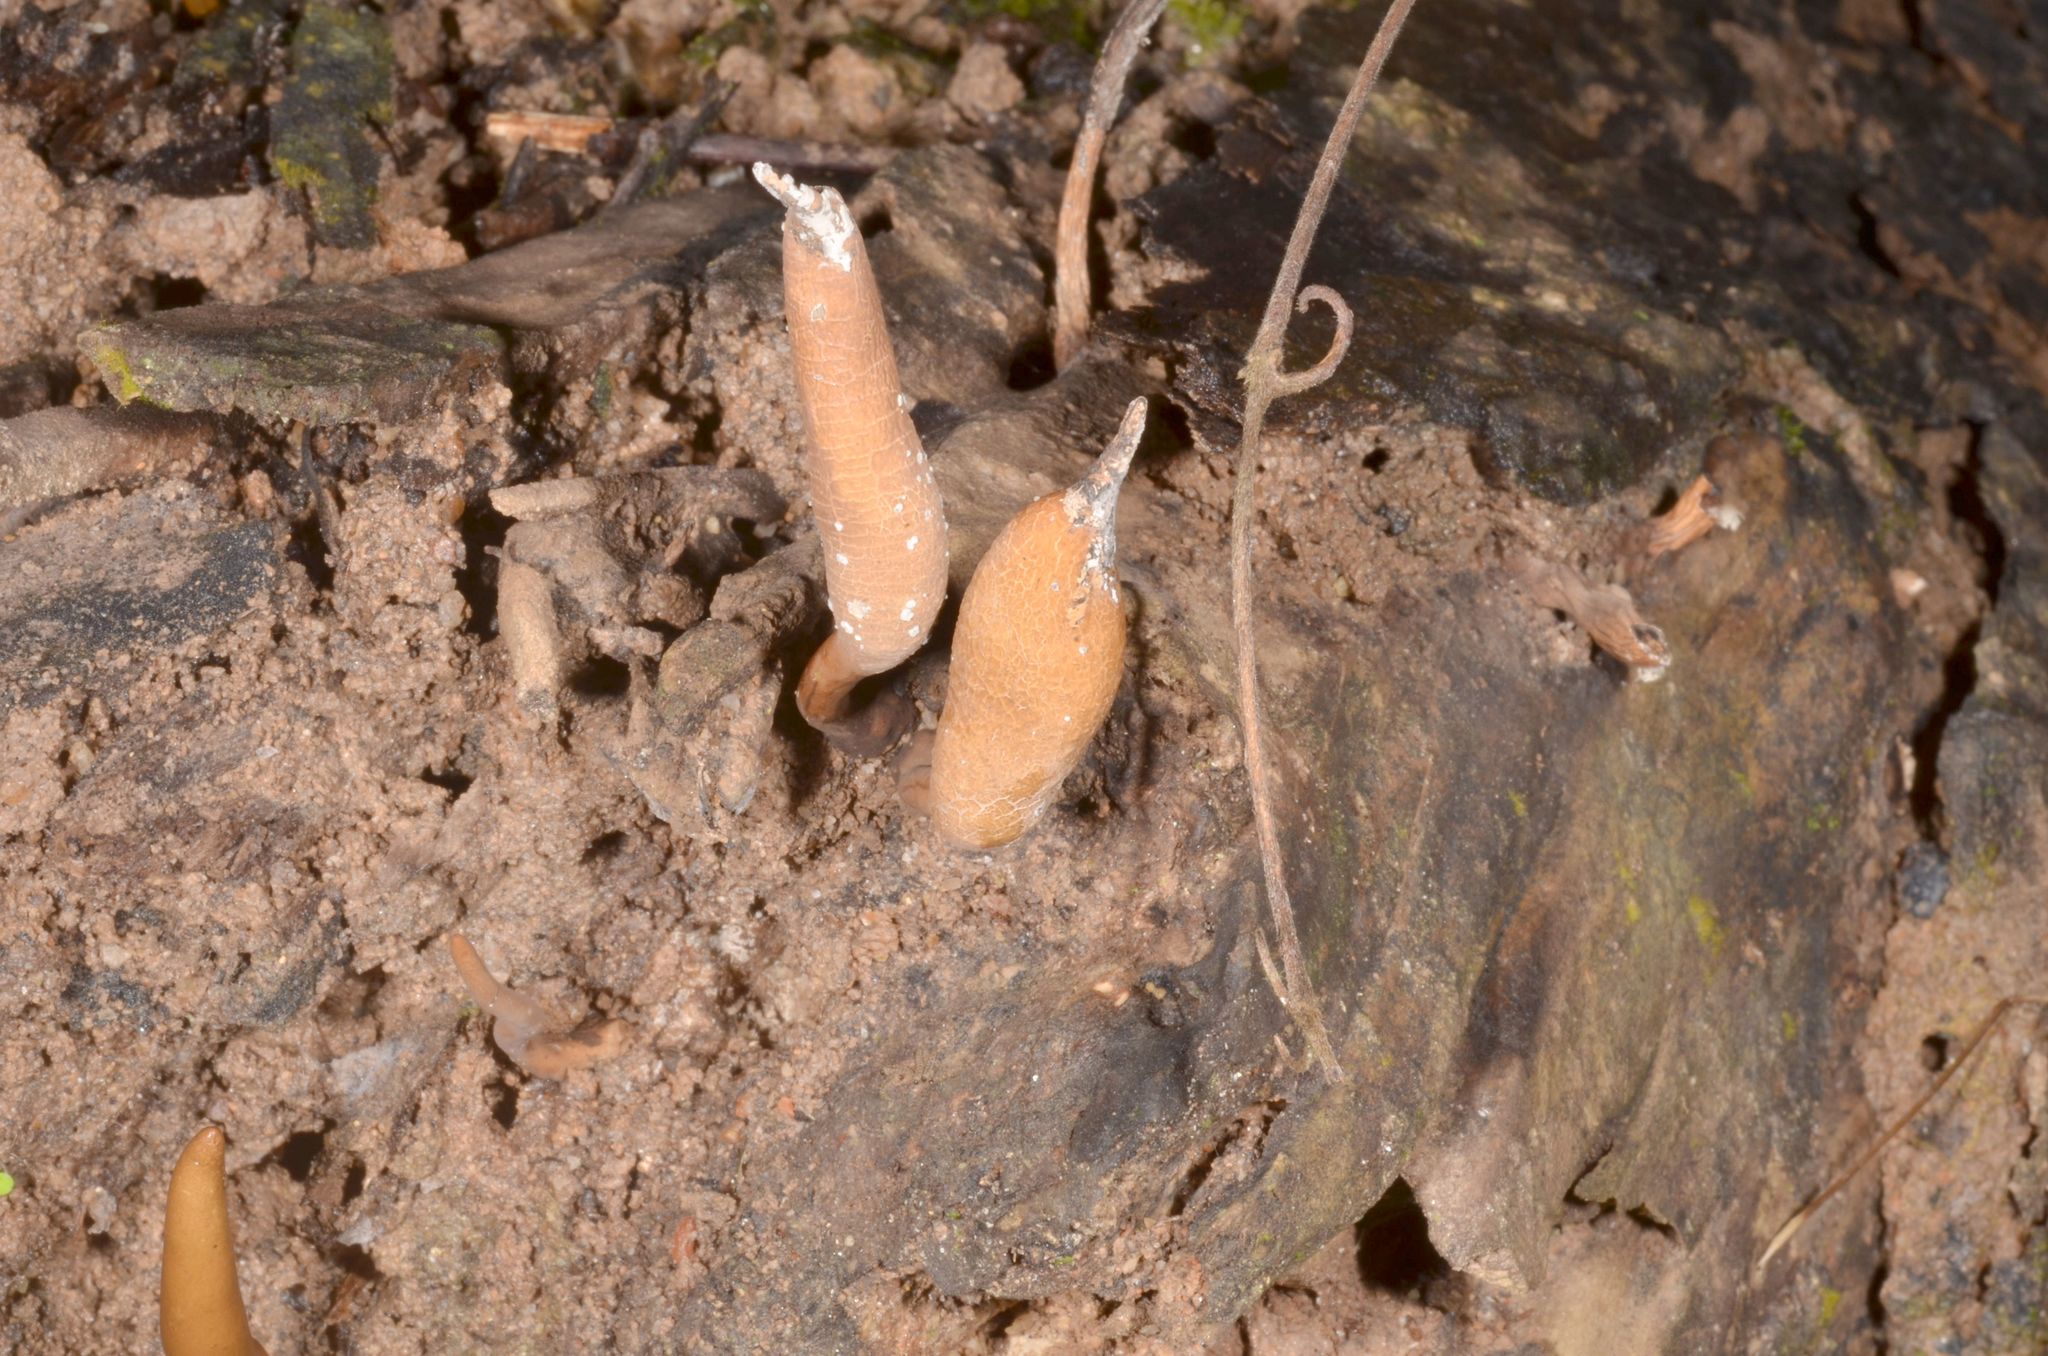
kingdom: Fungi
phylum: Ascomycota
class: Sordariomycetes
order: Xylariales
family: Xylariaceae
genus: Xylaria
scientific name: Xylaria telfairii
